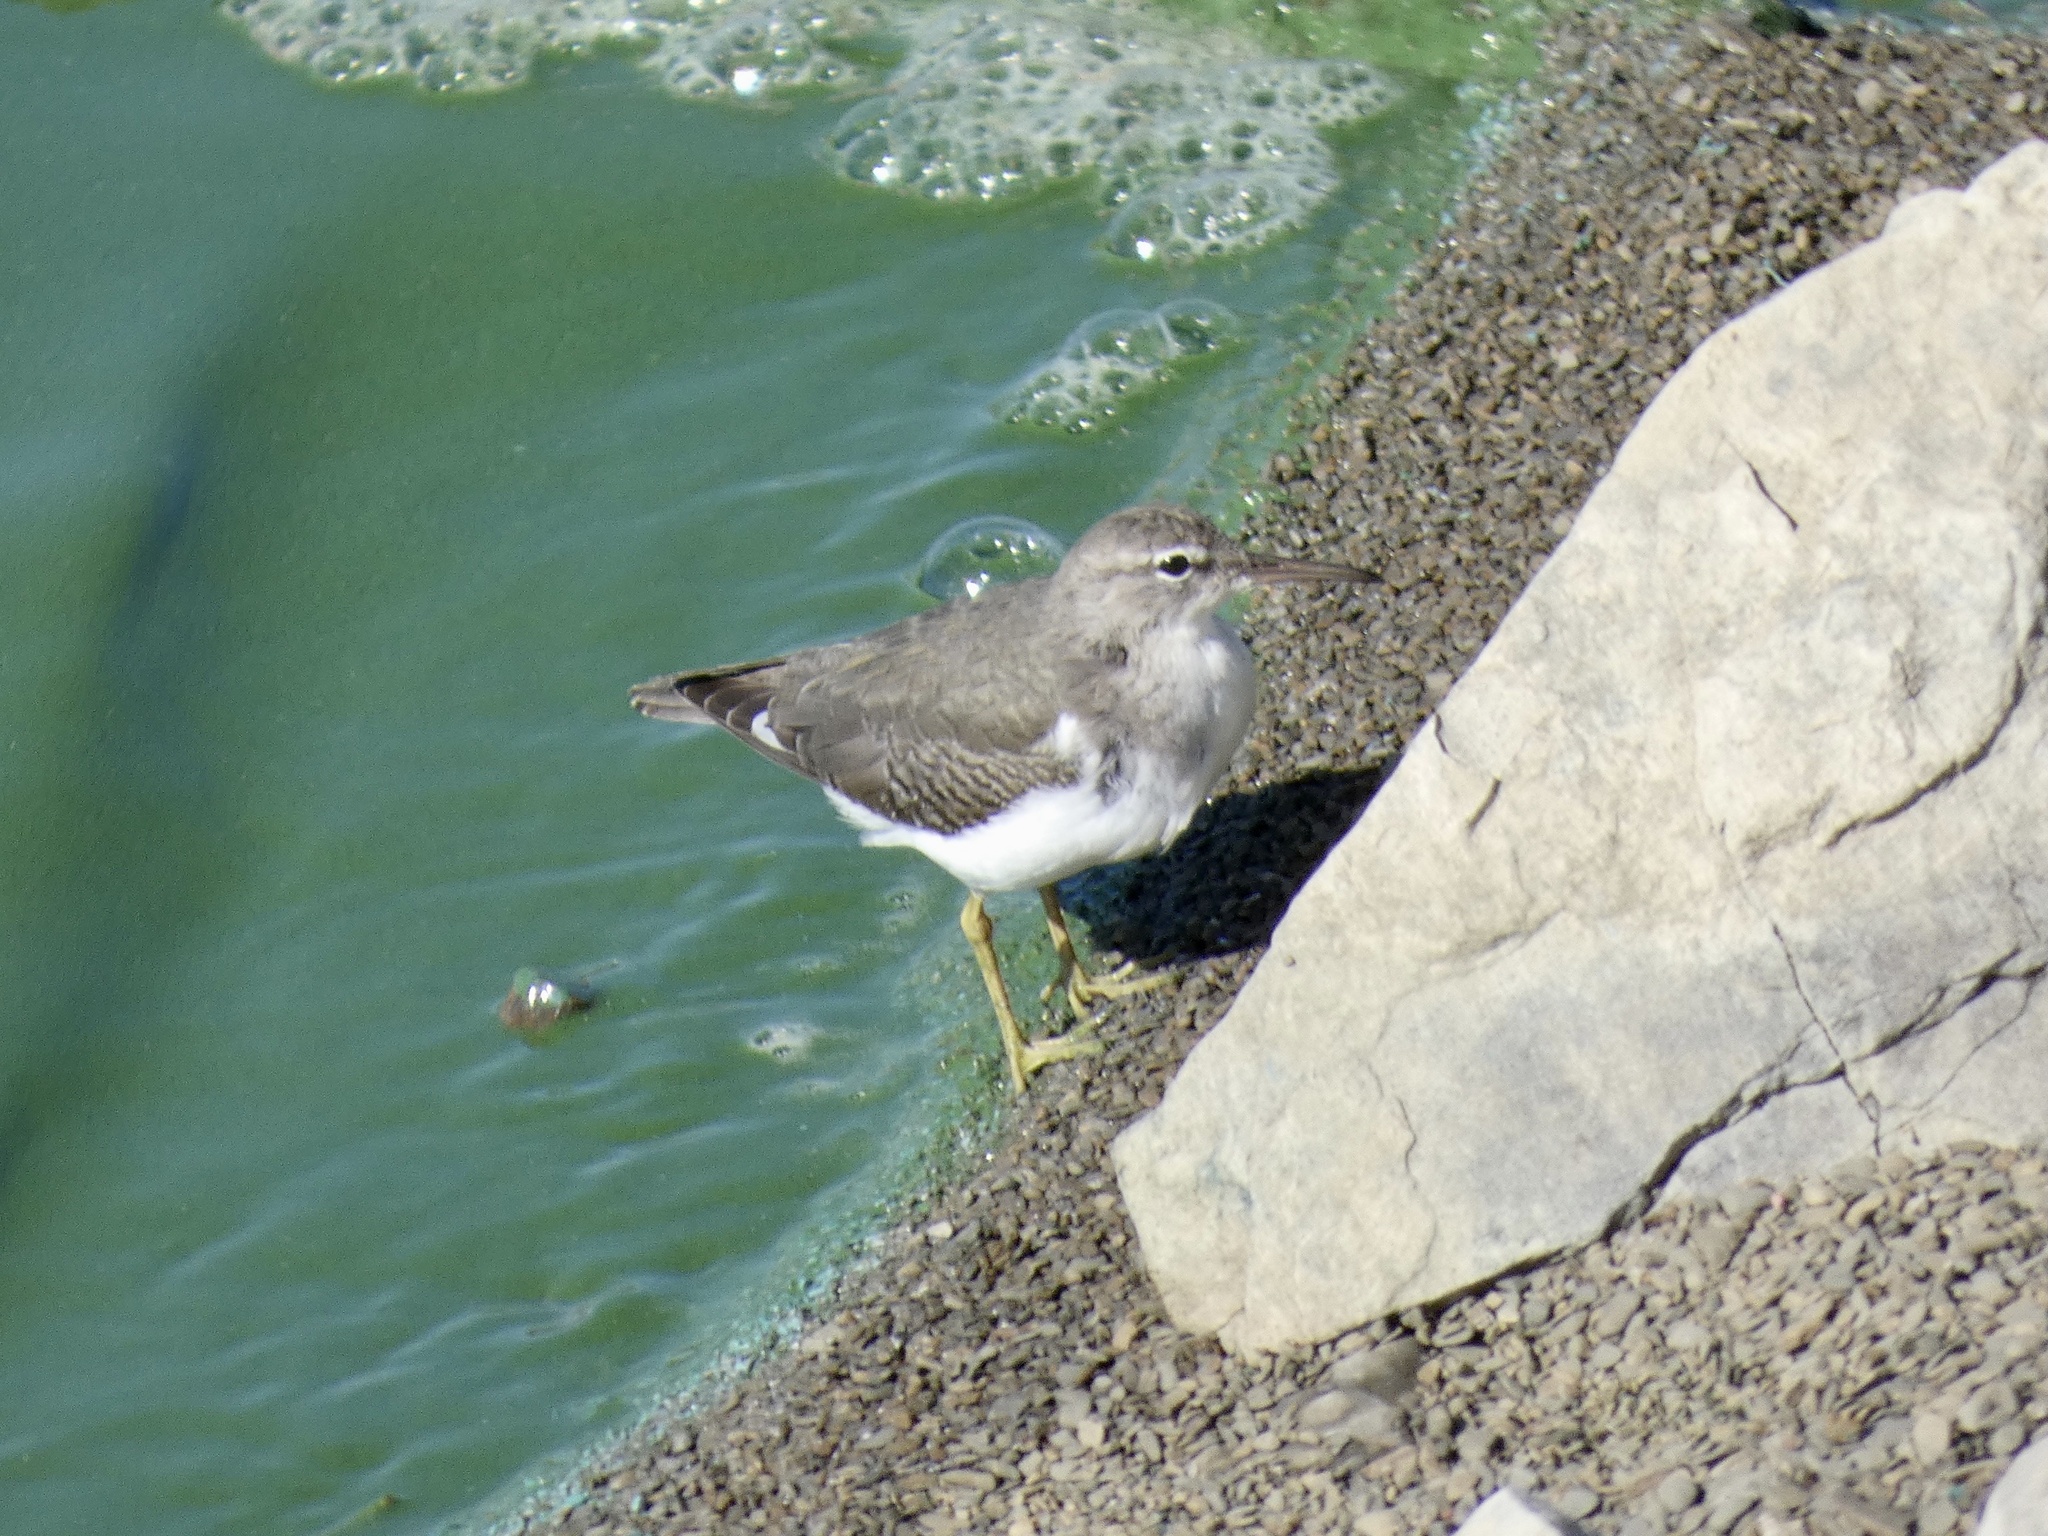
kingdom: Animalia
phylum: Chordata
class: Aves
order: Charadriiformes
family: Scolopacidae
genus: Actitis
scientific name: Actitis macularius
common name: Spotted sandpiper
